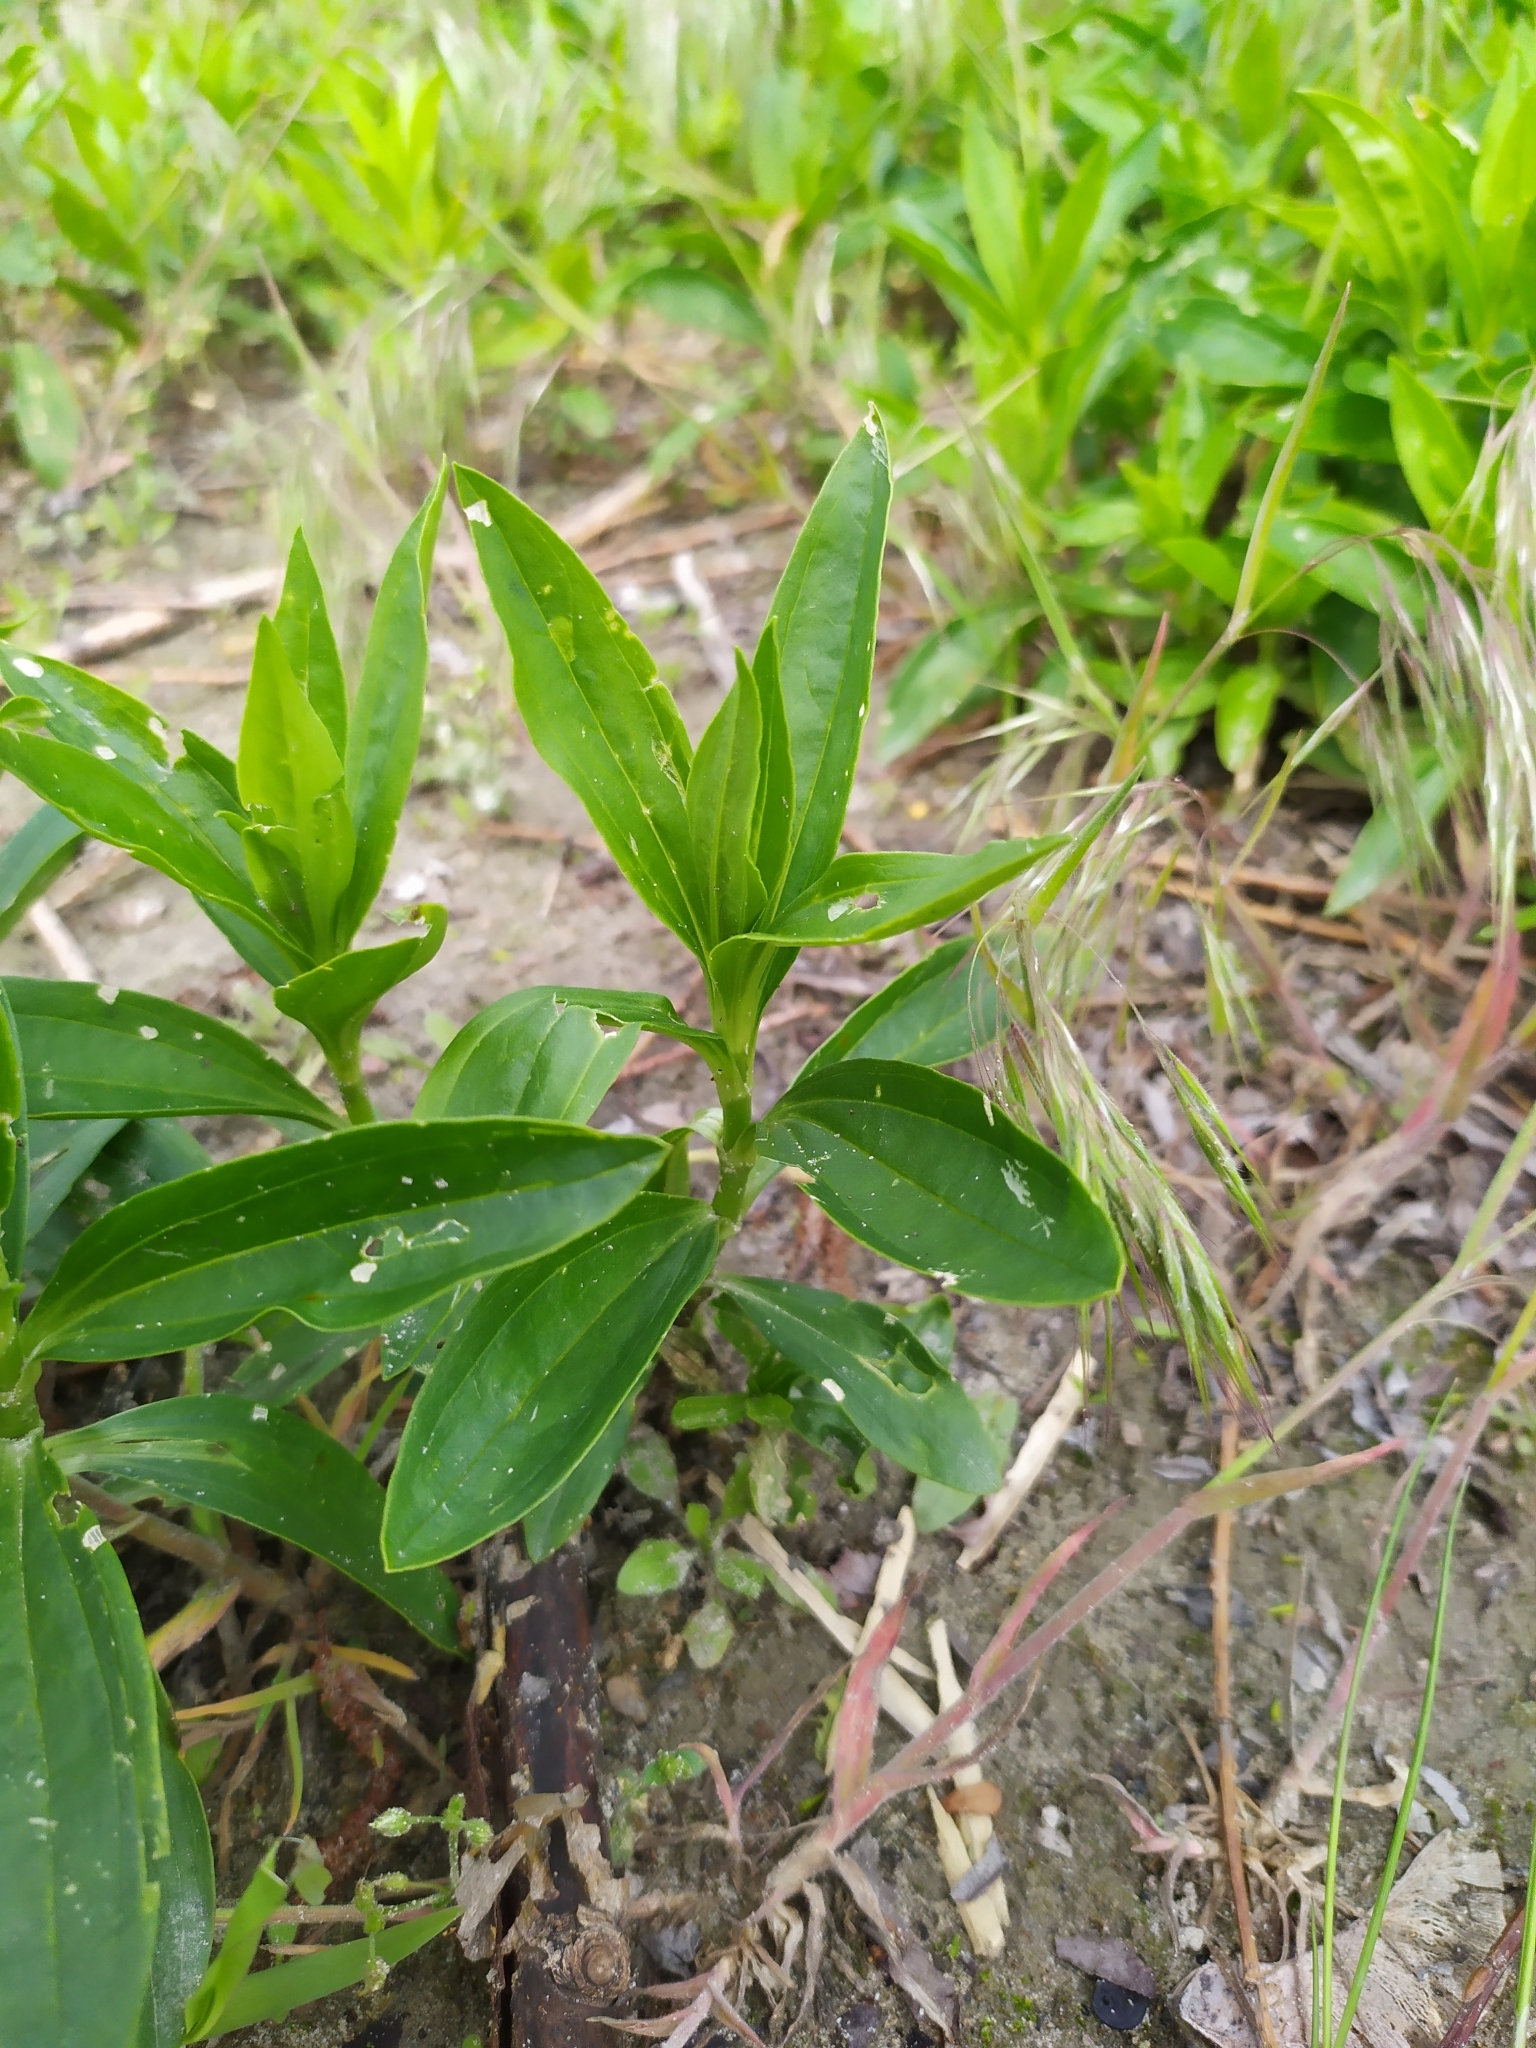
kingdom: Plantae
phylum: Tracheophyta
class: Magnoliopsida
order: Caryophyllales
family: Caryophyllaceae
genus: Saponaria
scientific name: Saponaria officinalis
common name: Soapwort
